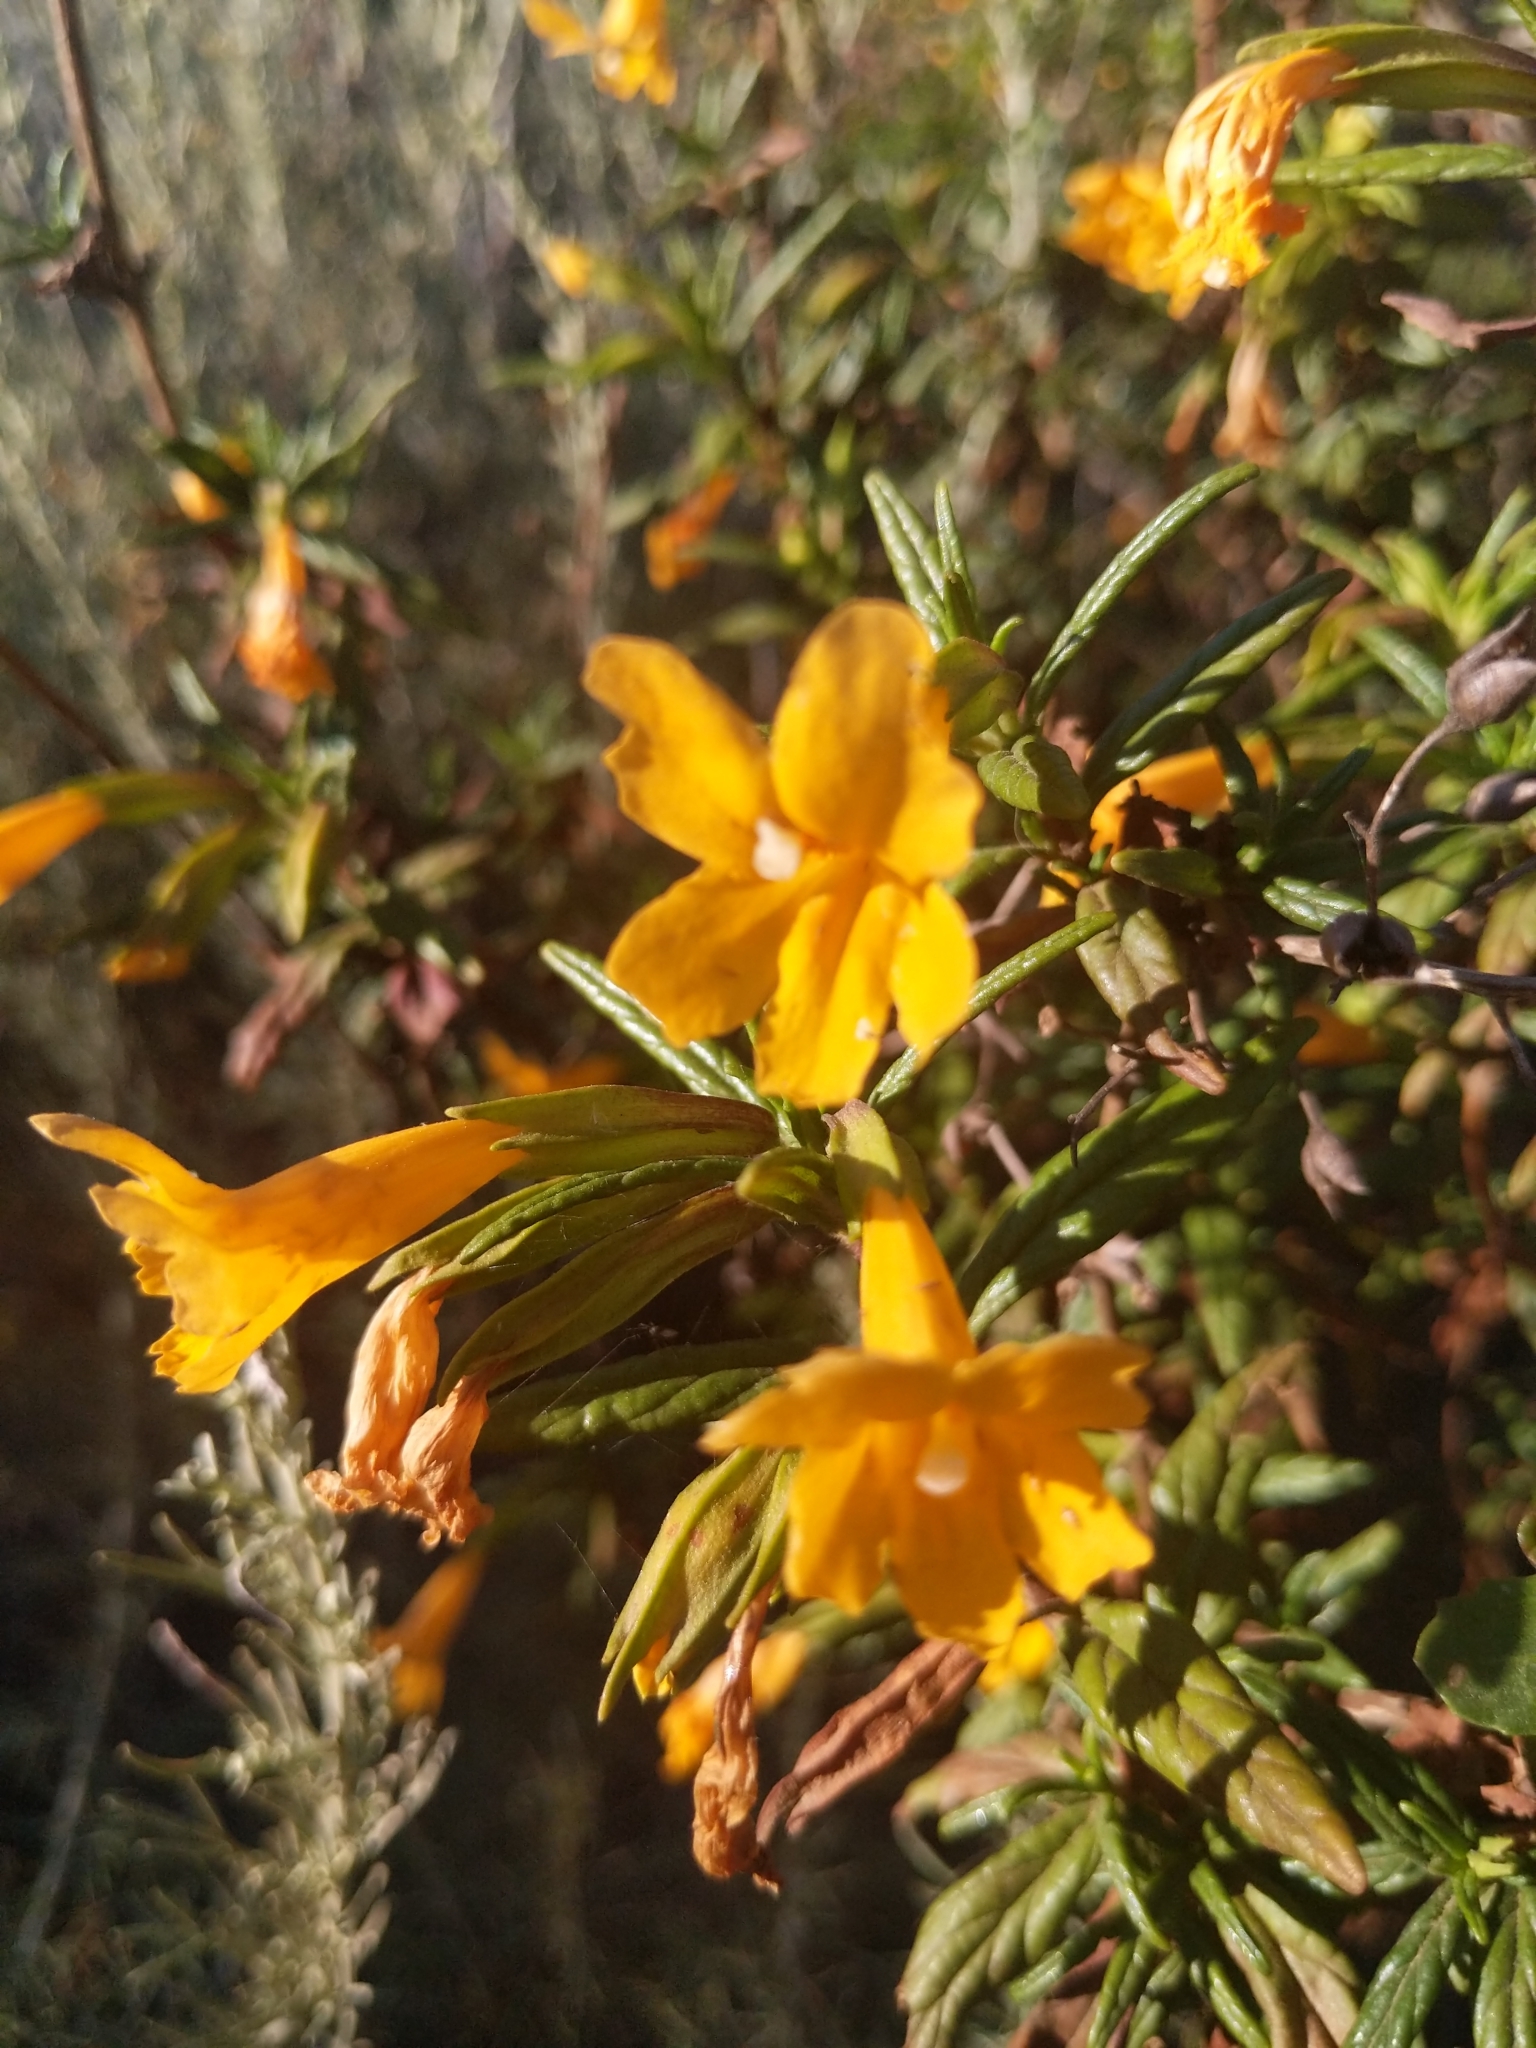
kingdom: Plantae
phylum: Tracheophyta
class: Magnoliopsida
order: Lamiales
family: Phrymaceae
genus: Diplacus
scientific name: Diplacus aurantiacus
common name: Bush monkey-flower
